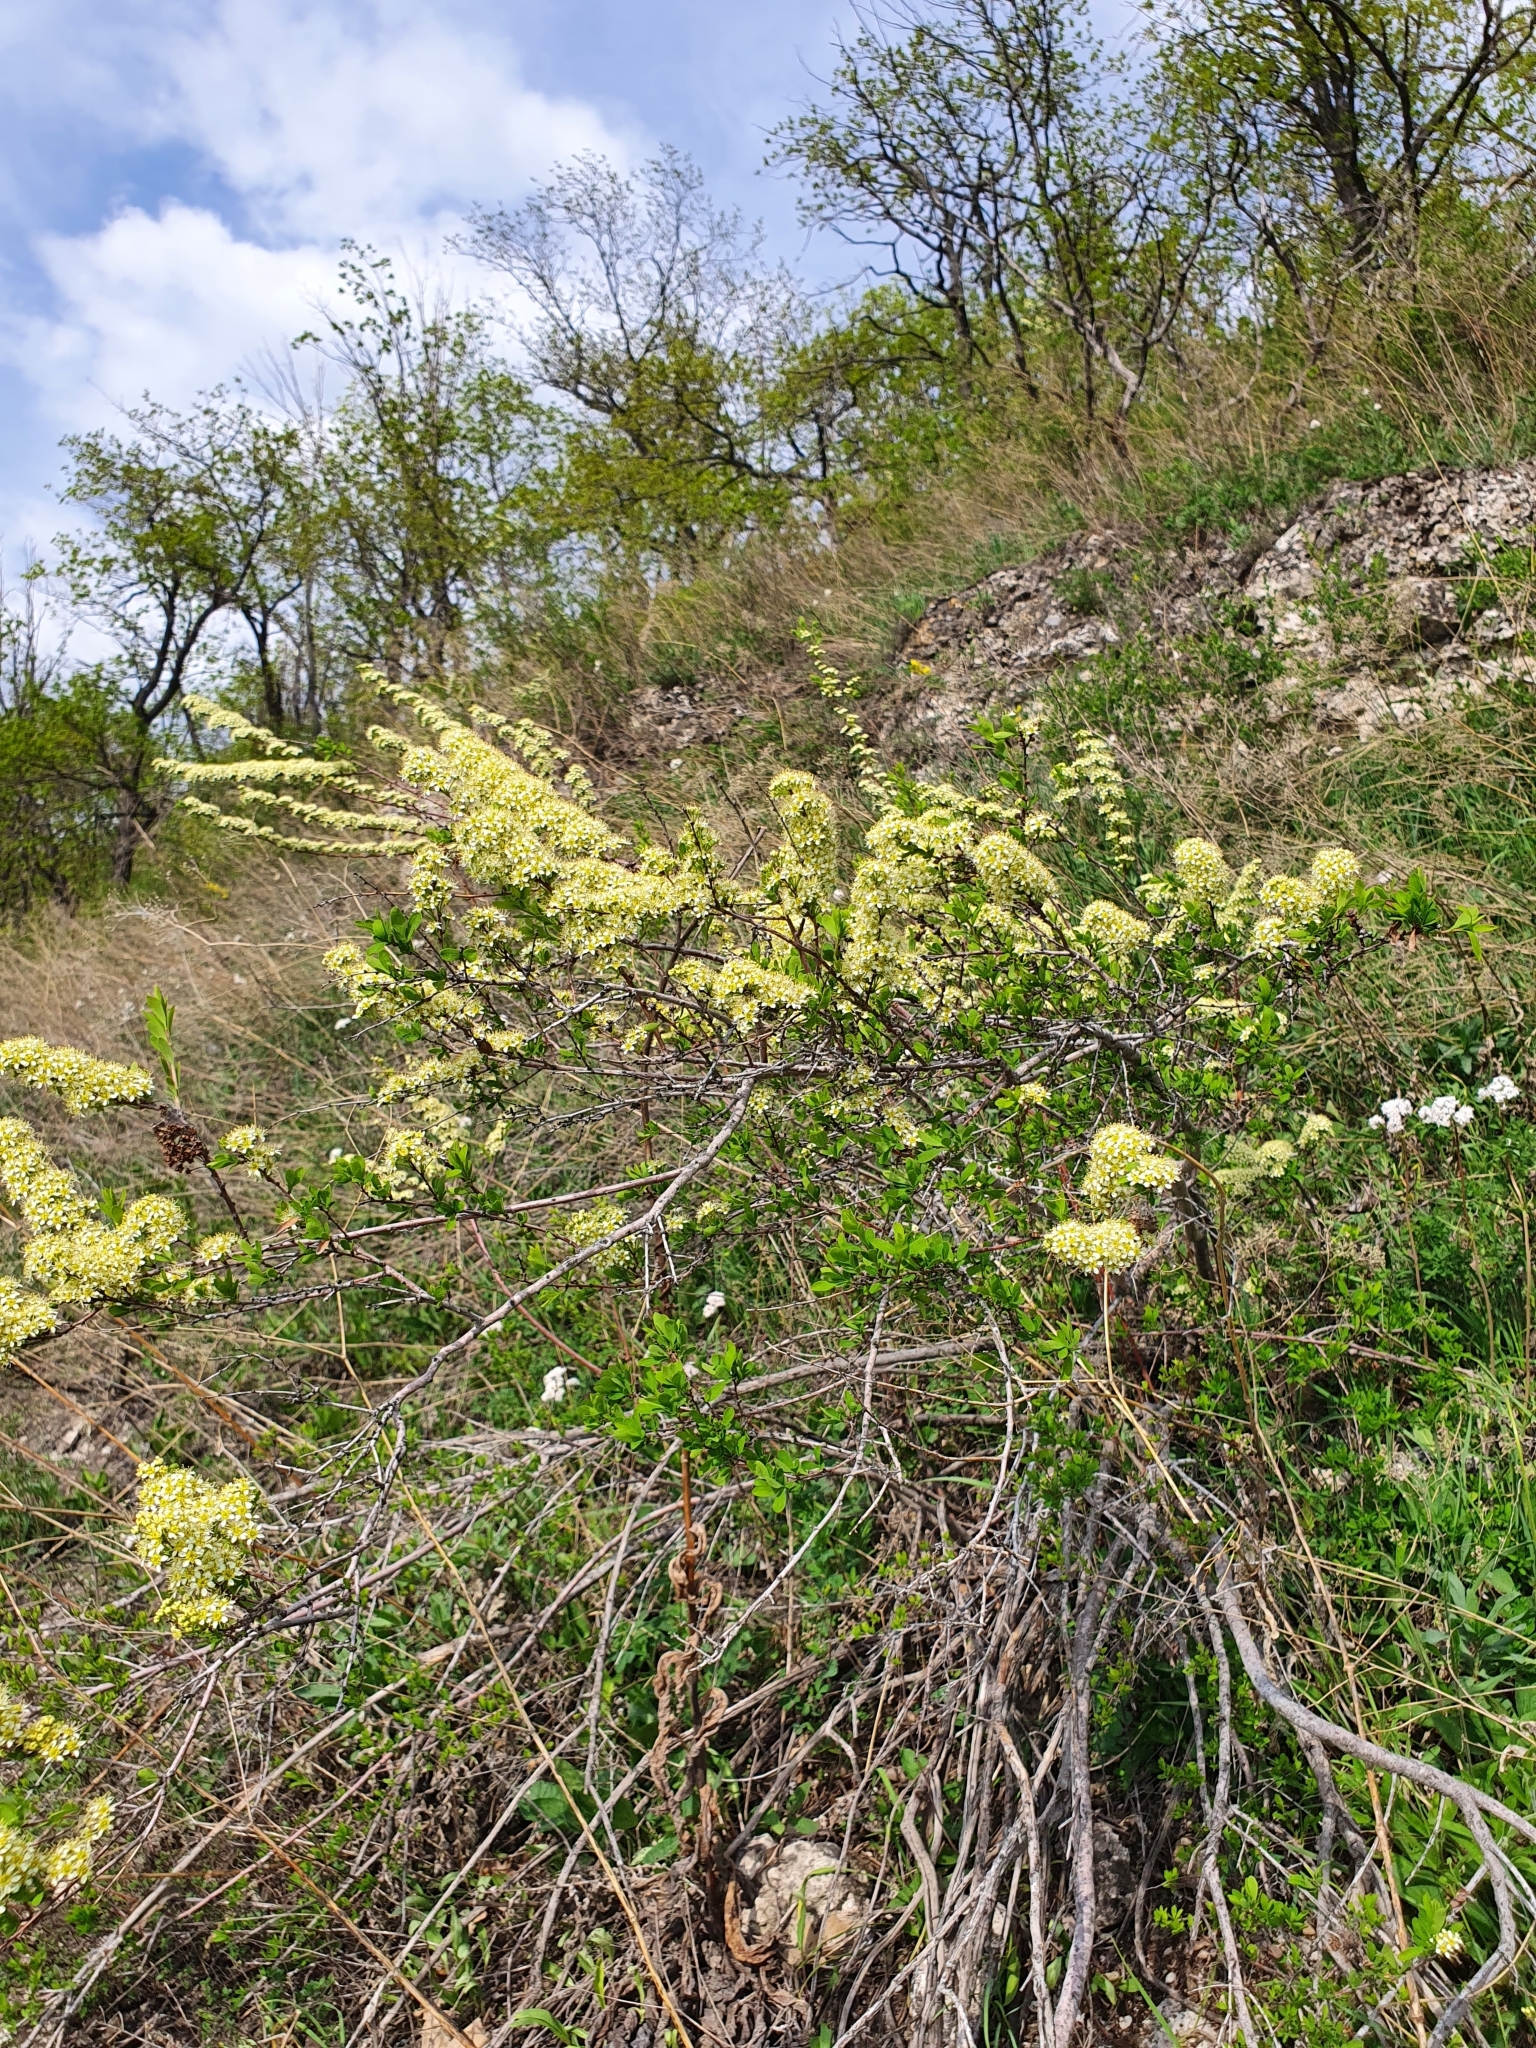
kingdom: Plantae
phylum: Tracheophyta
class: Magnoliopsida
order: Rosales
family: Rosaceae
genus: Spiraea
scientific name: Spiraea hypericifolia
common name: Iberian spirea
